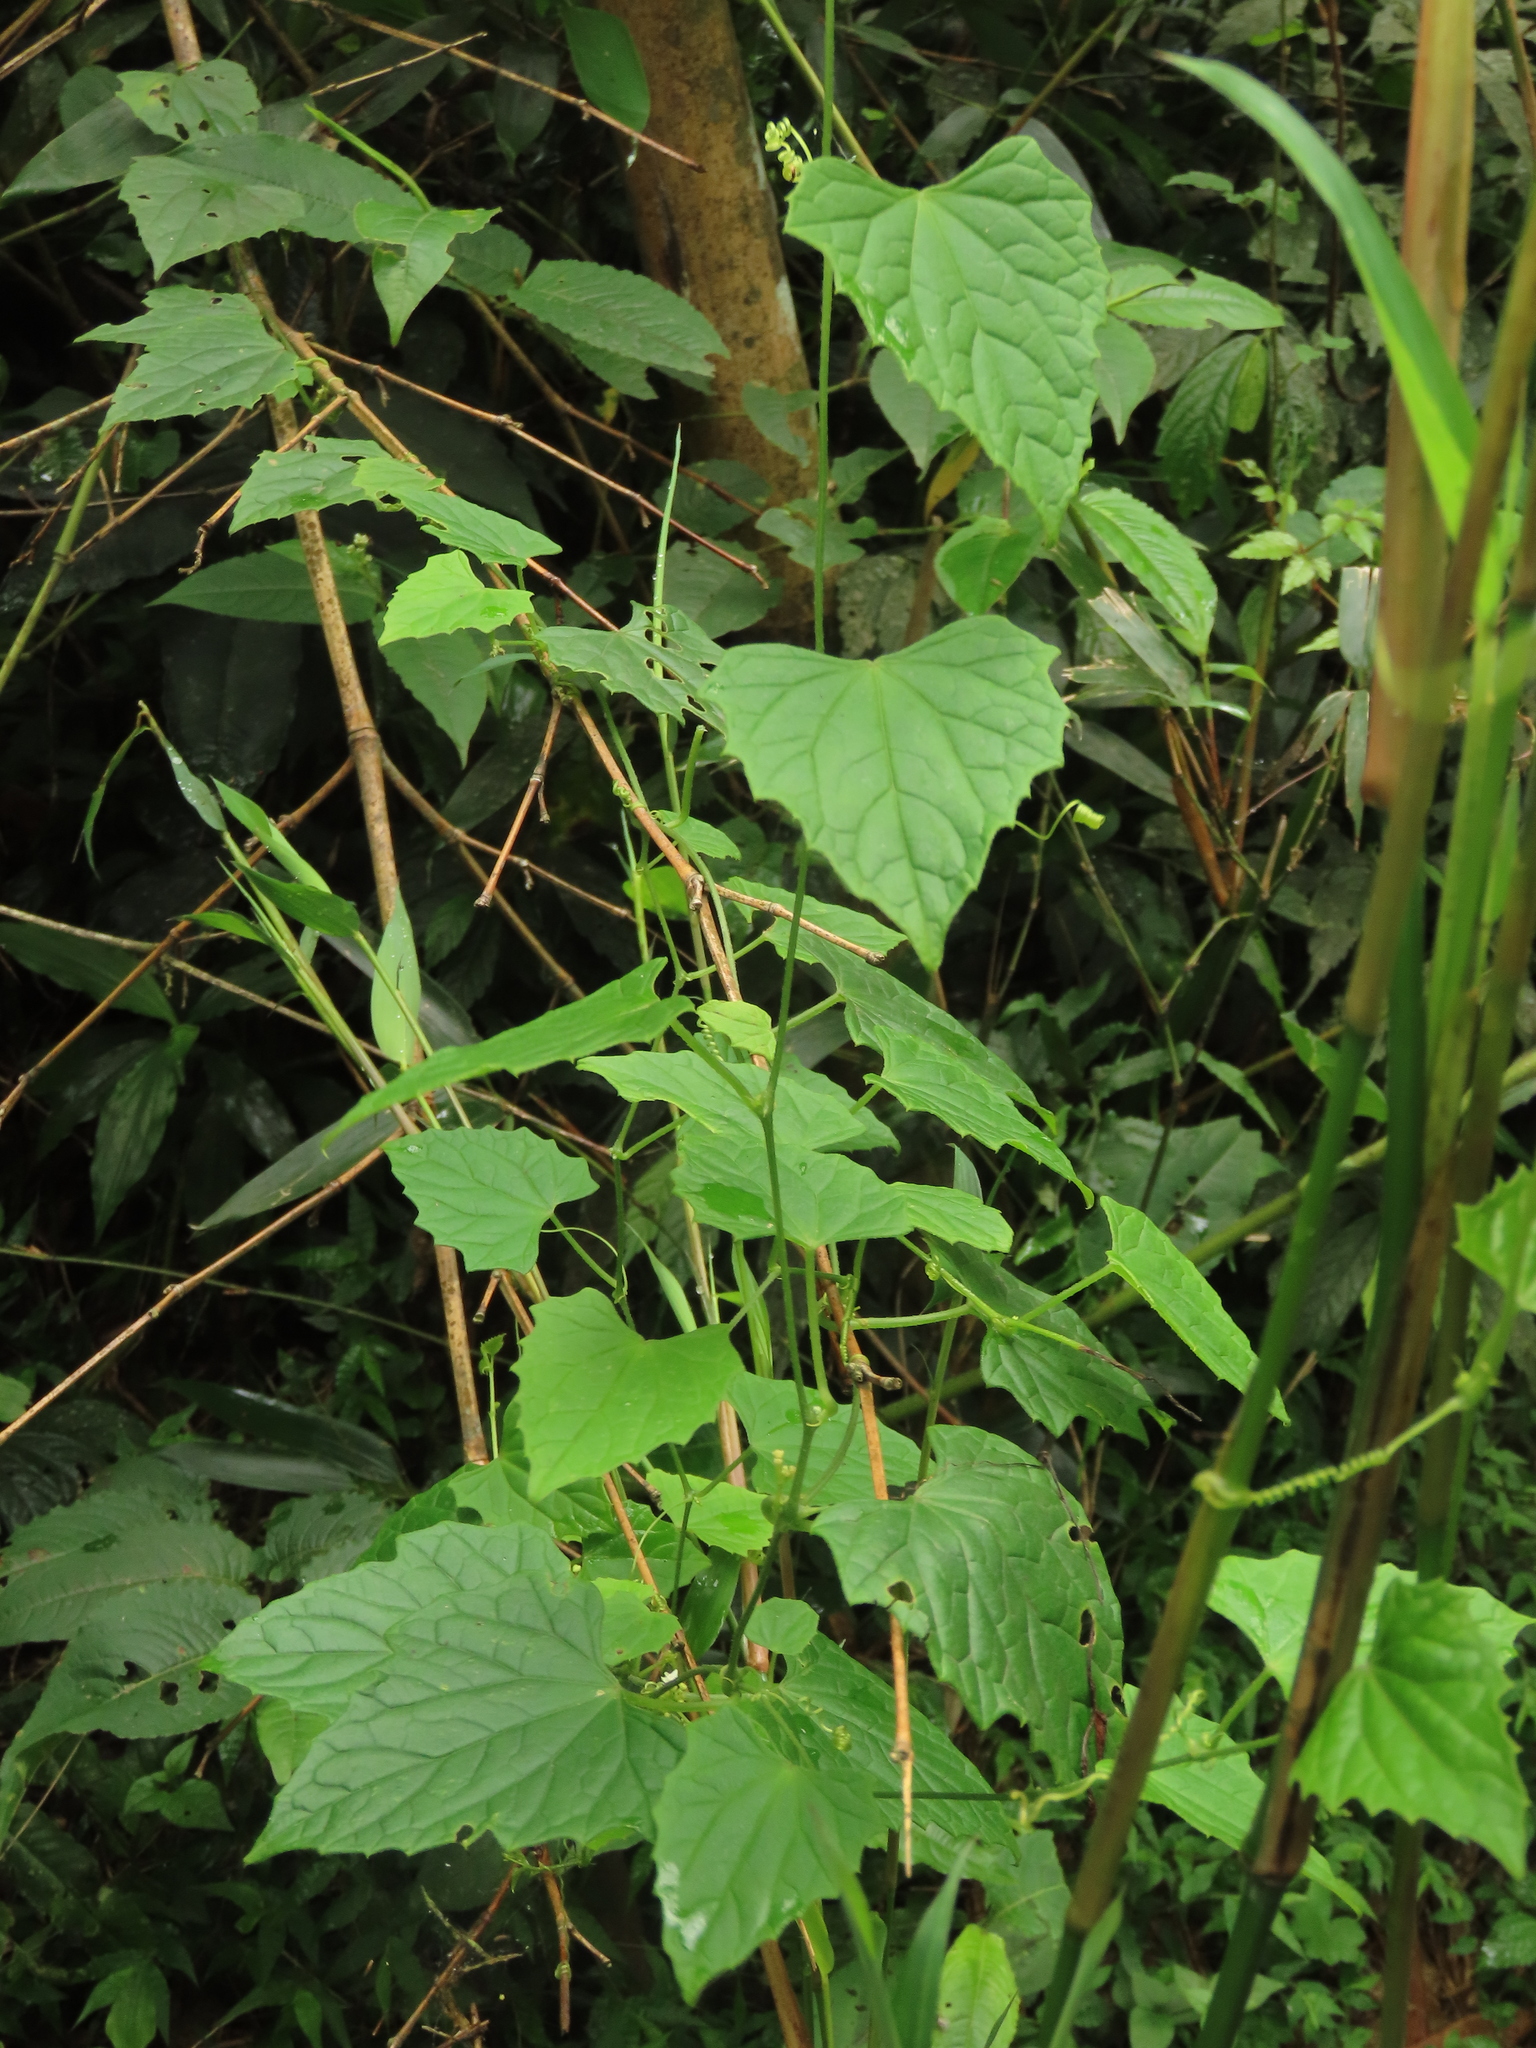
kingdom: Plantae
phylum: Tracheophyta
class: Magnoliopsida
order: Cucurbitales
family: Cucurbitaceae
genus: Zehneria
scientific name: Zehneria guamensis
